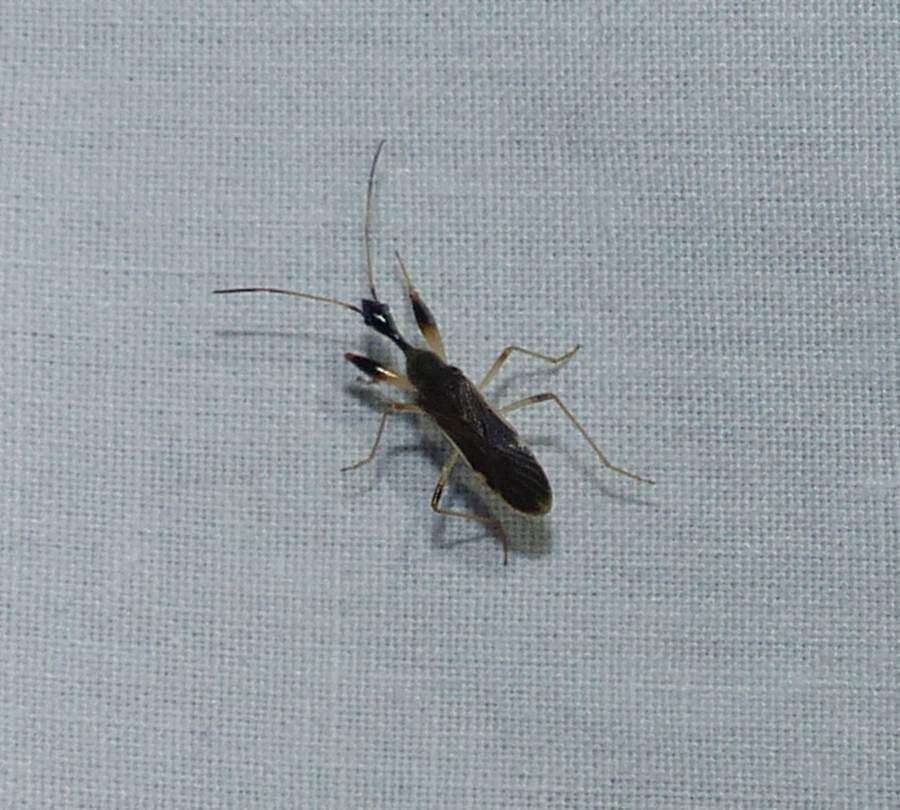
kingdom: Animalia
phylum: Arthropoda
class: Insecta
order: Hemiptera
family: Rhyparochromidae
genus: Myodocha
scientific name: Myodocha serripes
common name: Long-necked seed bug
